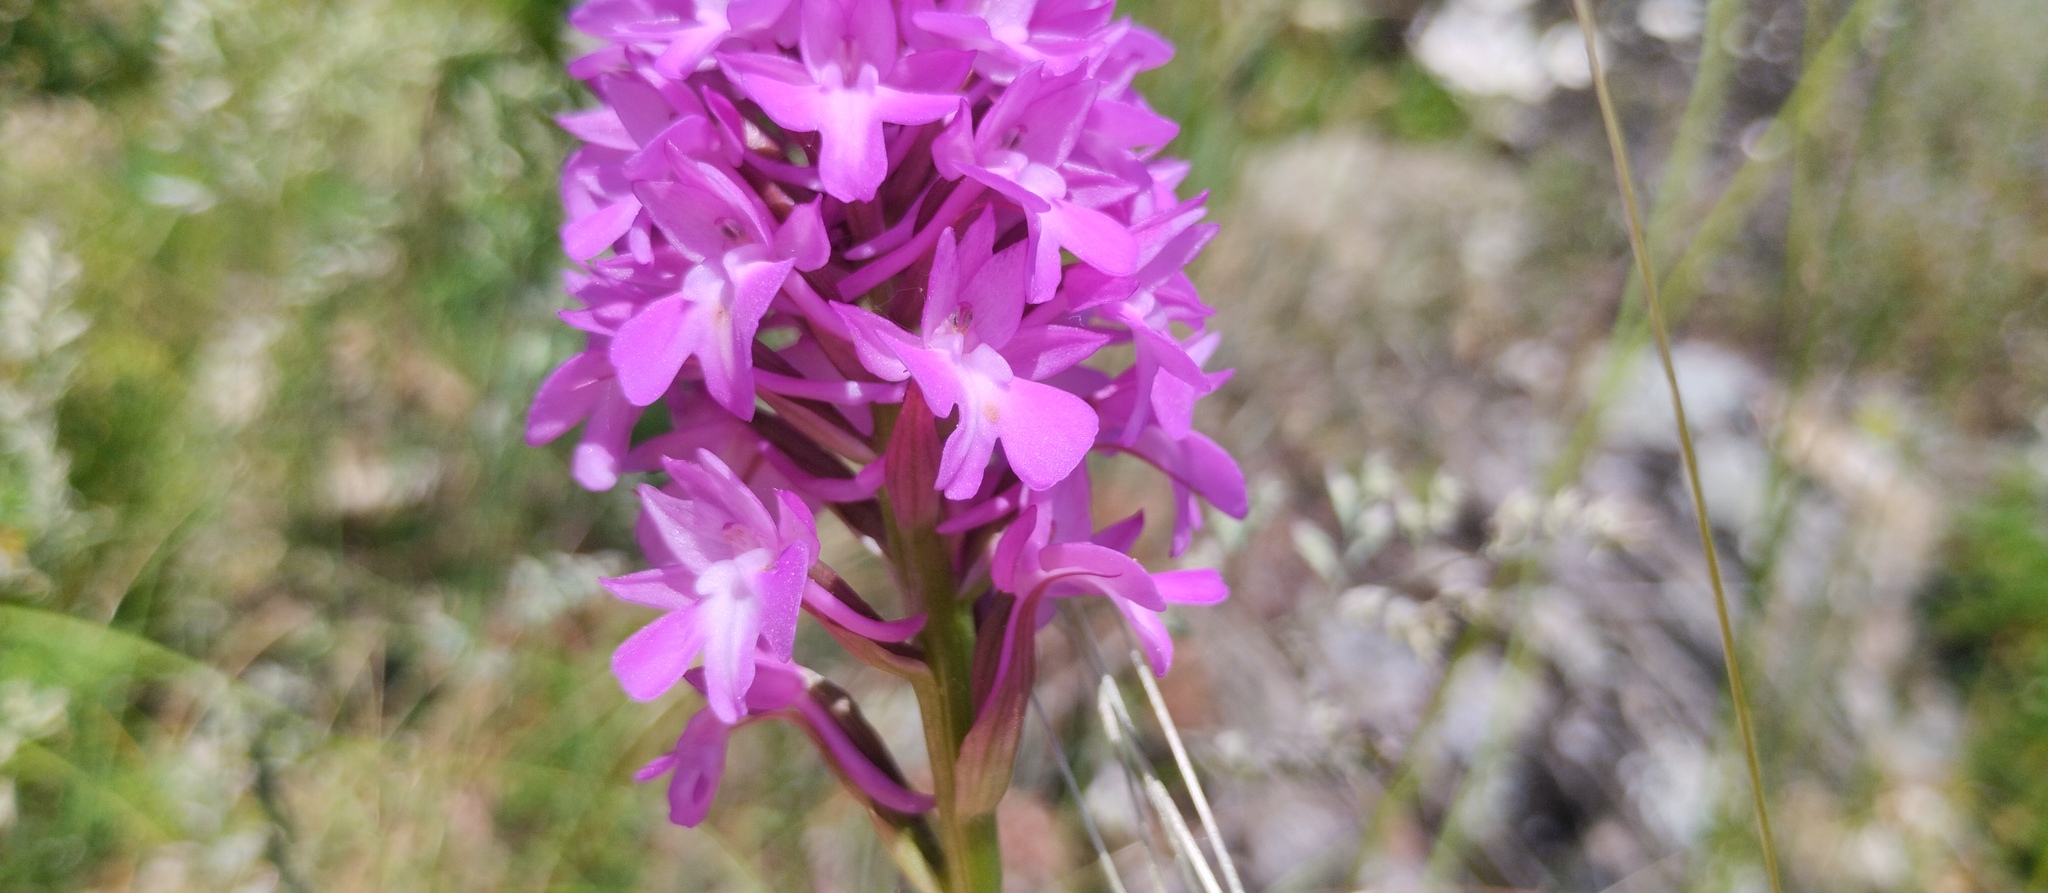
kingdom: Plantae
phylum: Tracheophyta
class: Liliopsida
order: Asparagales
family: Orchidaceae
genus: Anacamptis
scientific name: Anacamptis pyramidalis
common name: Pyramidal orchid
